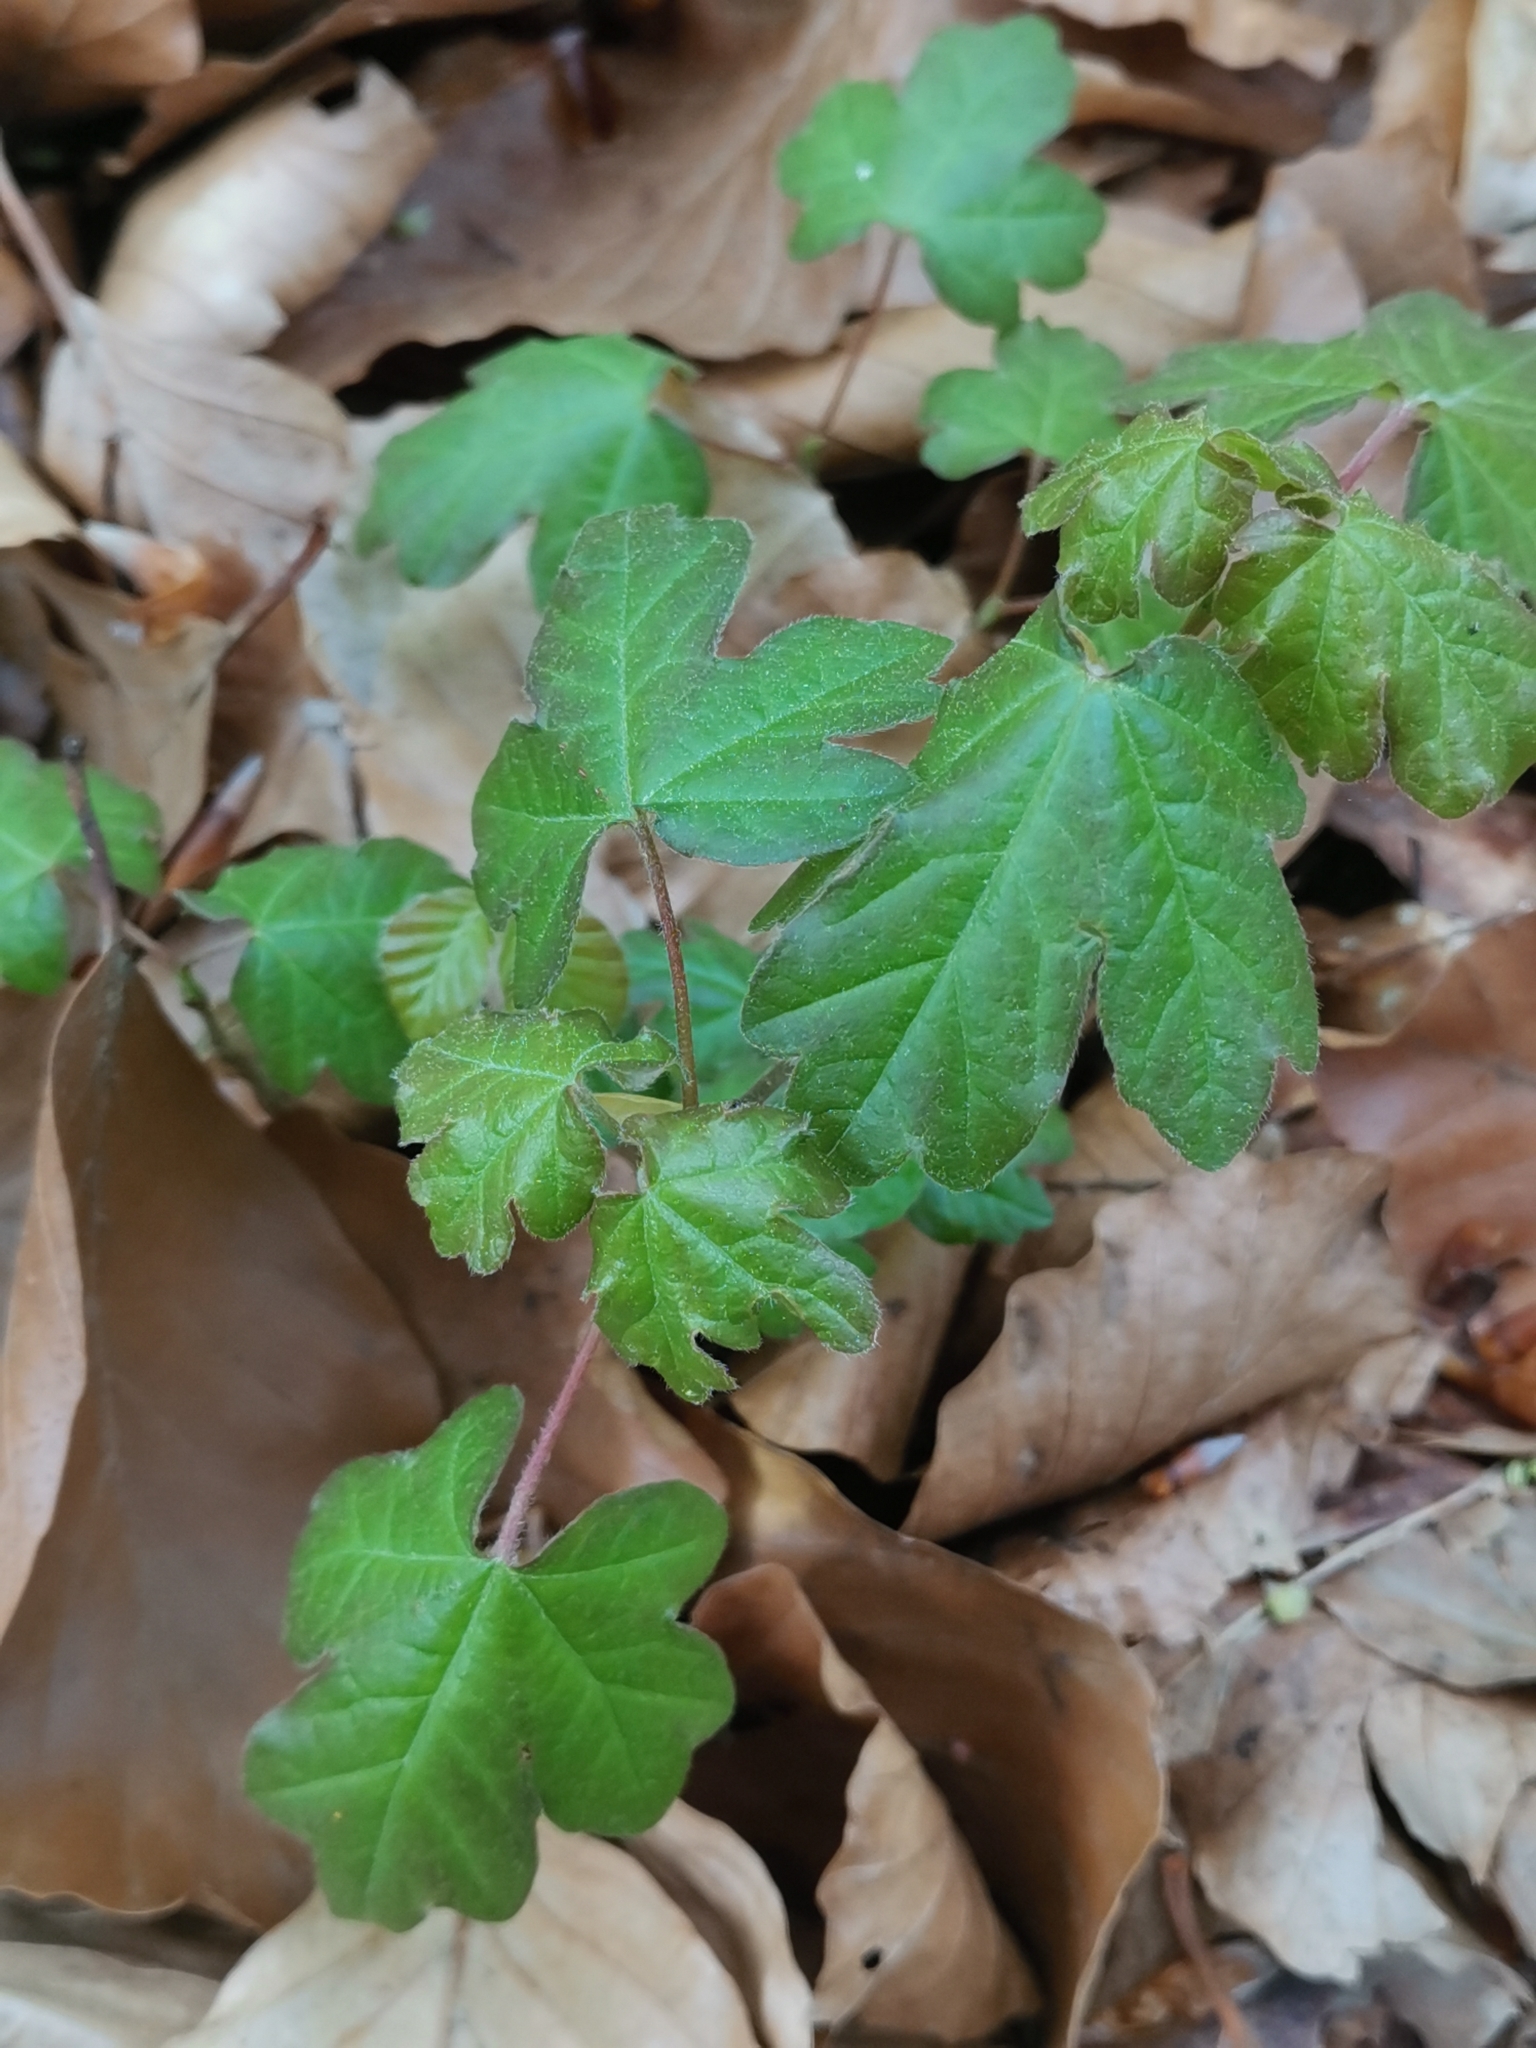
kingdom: Plantae
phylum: Tracheophyta
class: Magnoliopsida
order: Sapindales
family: Sapindaceae
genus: Acer
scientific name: Acer campestre
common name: Field maple
